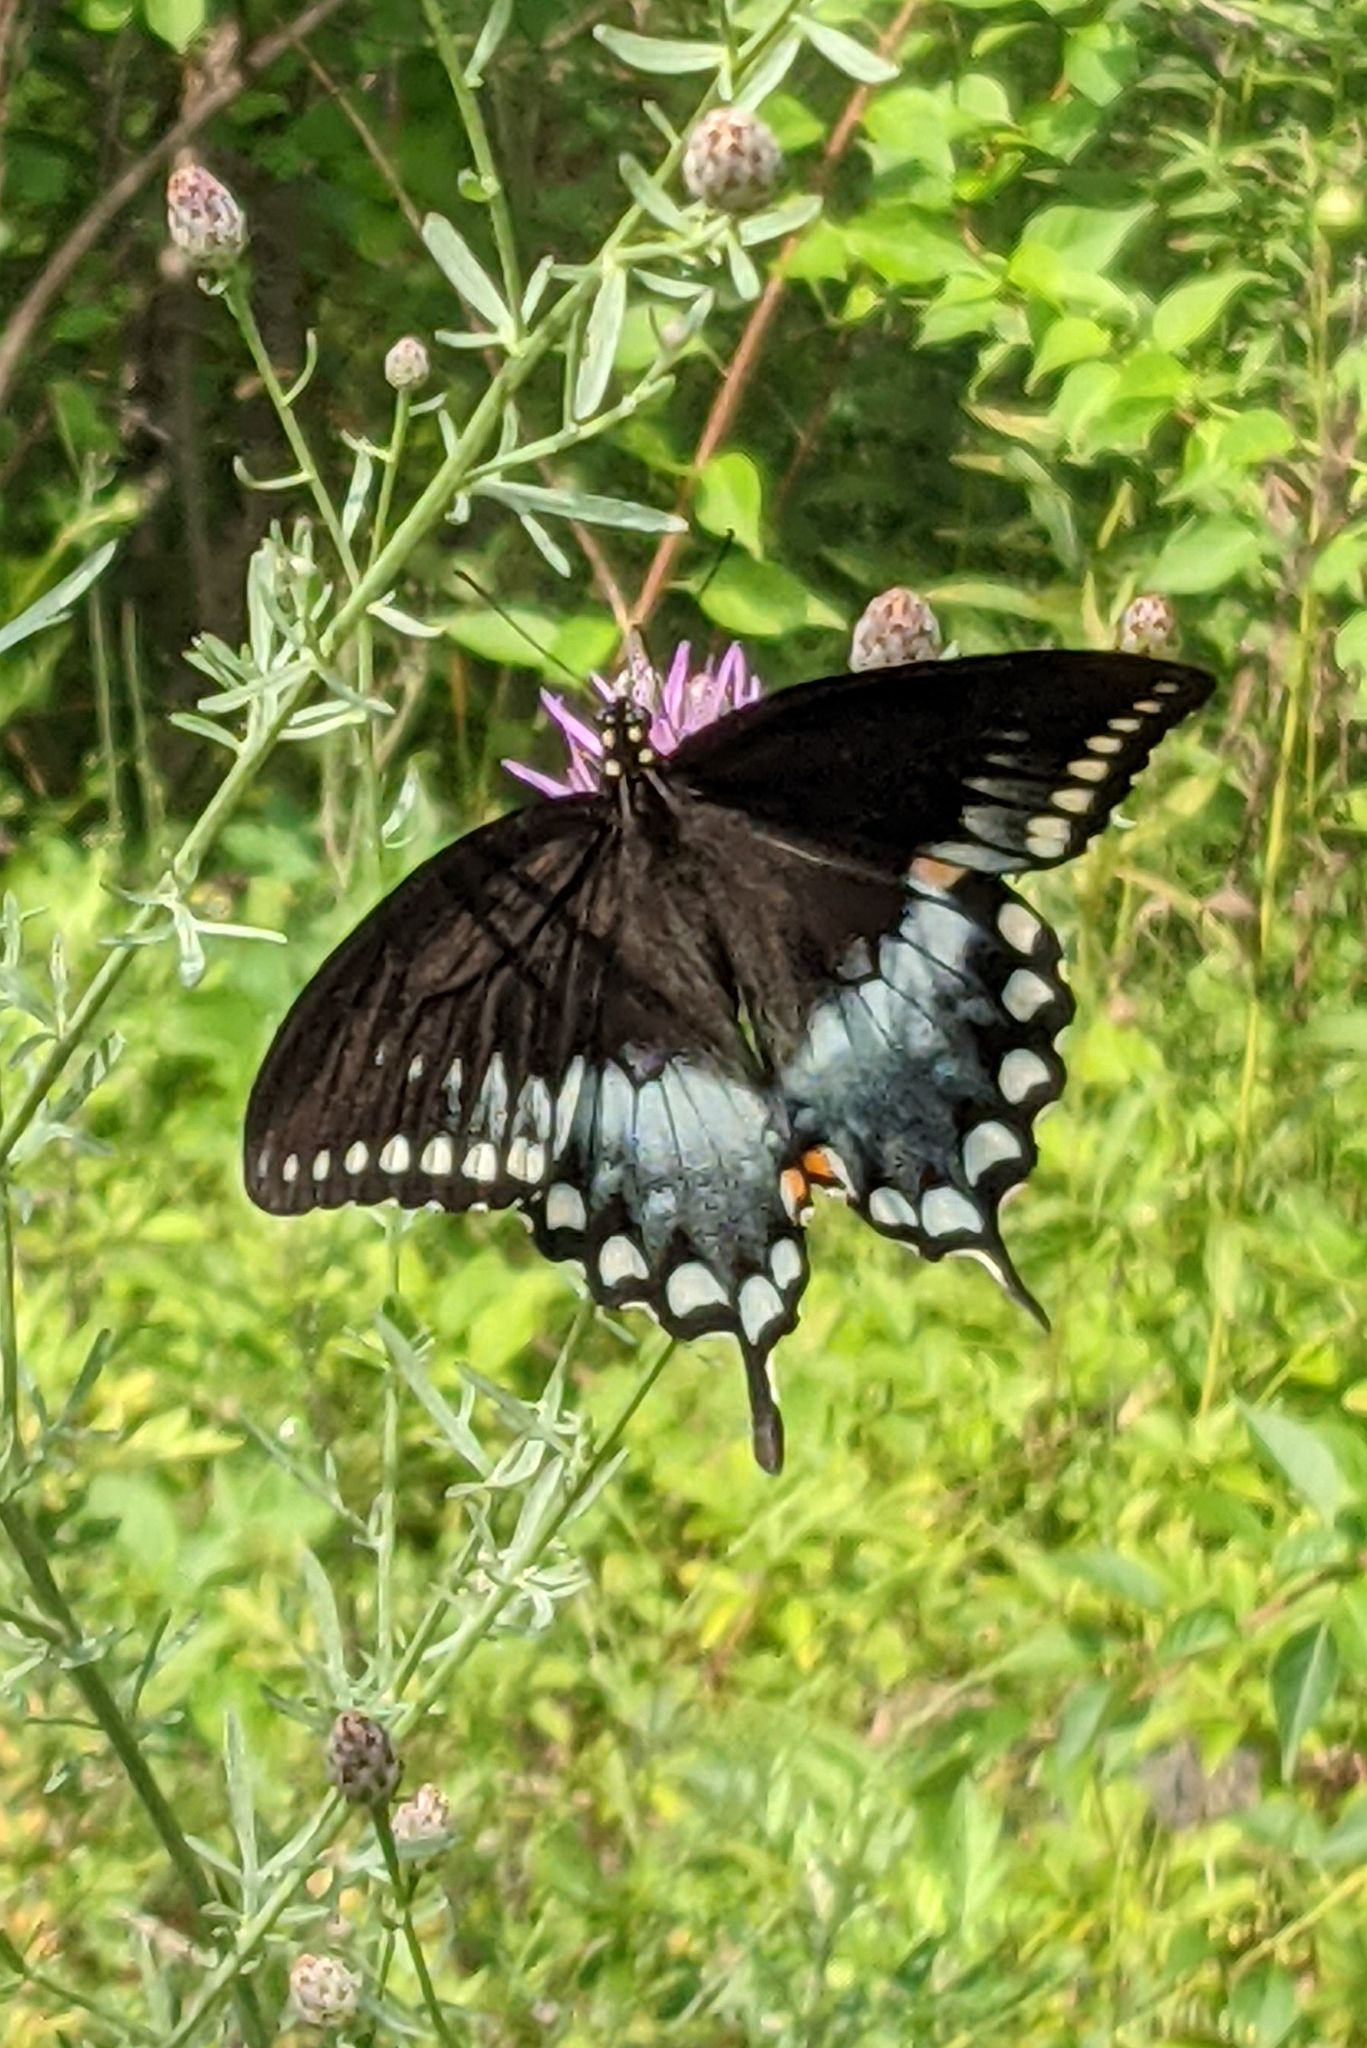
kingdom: Animalia
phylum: Arthropoda
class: Insecta
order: Lepidoptera
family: Papilionidae
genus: Papilio
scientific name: Papilio troilus
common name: Spicebush swallowtail
